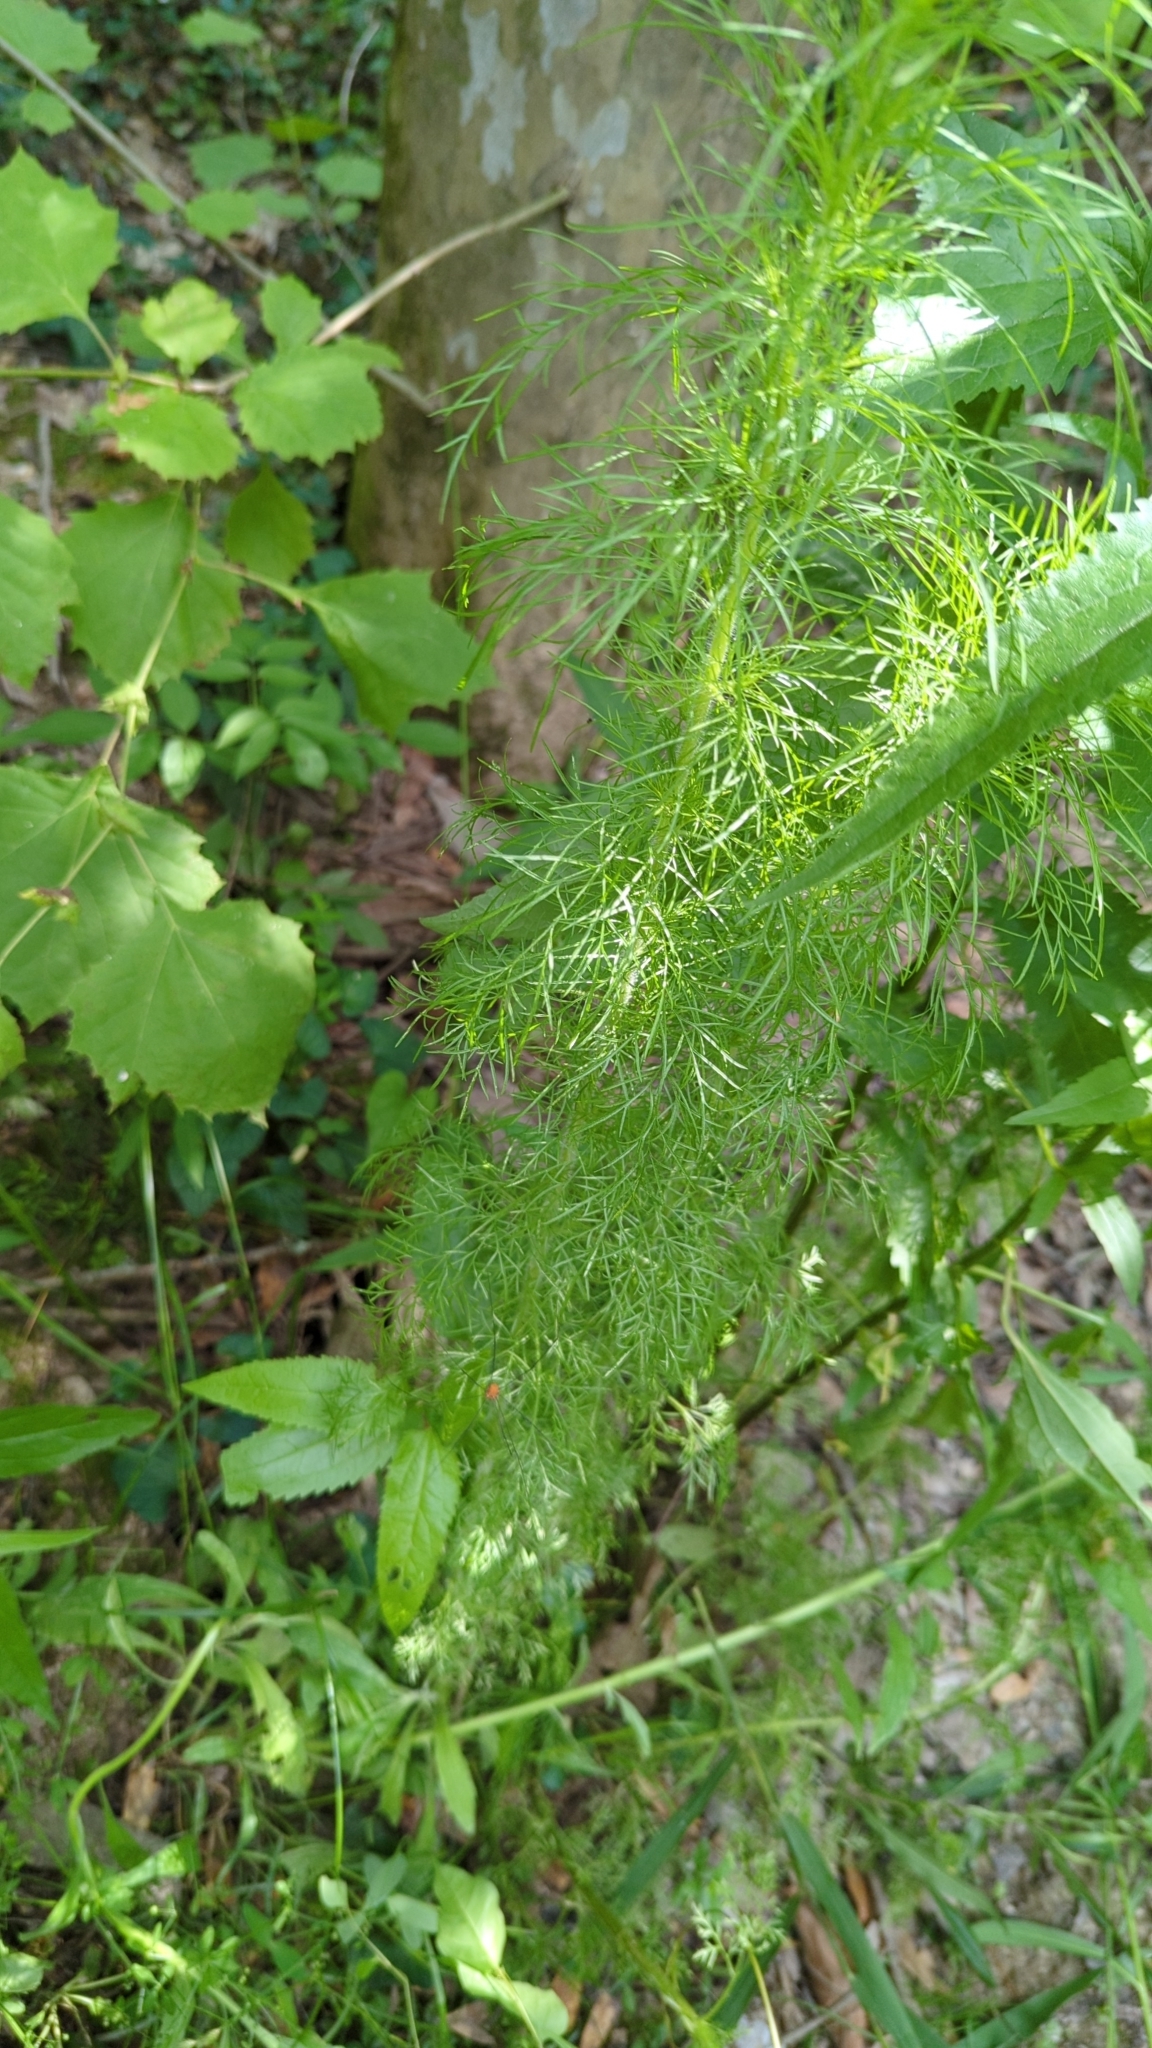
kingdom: Plantae
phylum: Tracheophyta
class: Magnoliopsida
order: Asterales
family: Asteraceae
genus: Eupatorium
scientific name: Eupatorium capillifolium
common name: Dog-fennel
